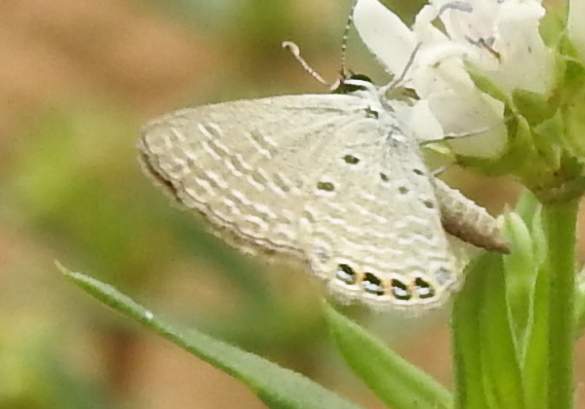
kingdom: Animalia
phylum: Arthropoda
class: Insecta
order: Lepidoptera
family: Lycaenidae
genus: Freyeria
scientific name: Freyeria putli
